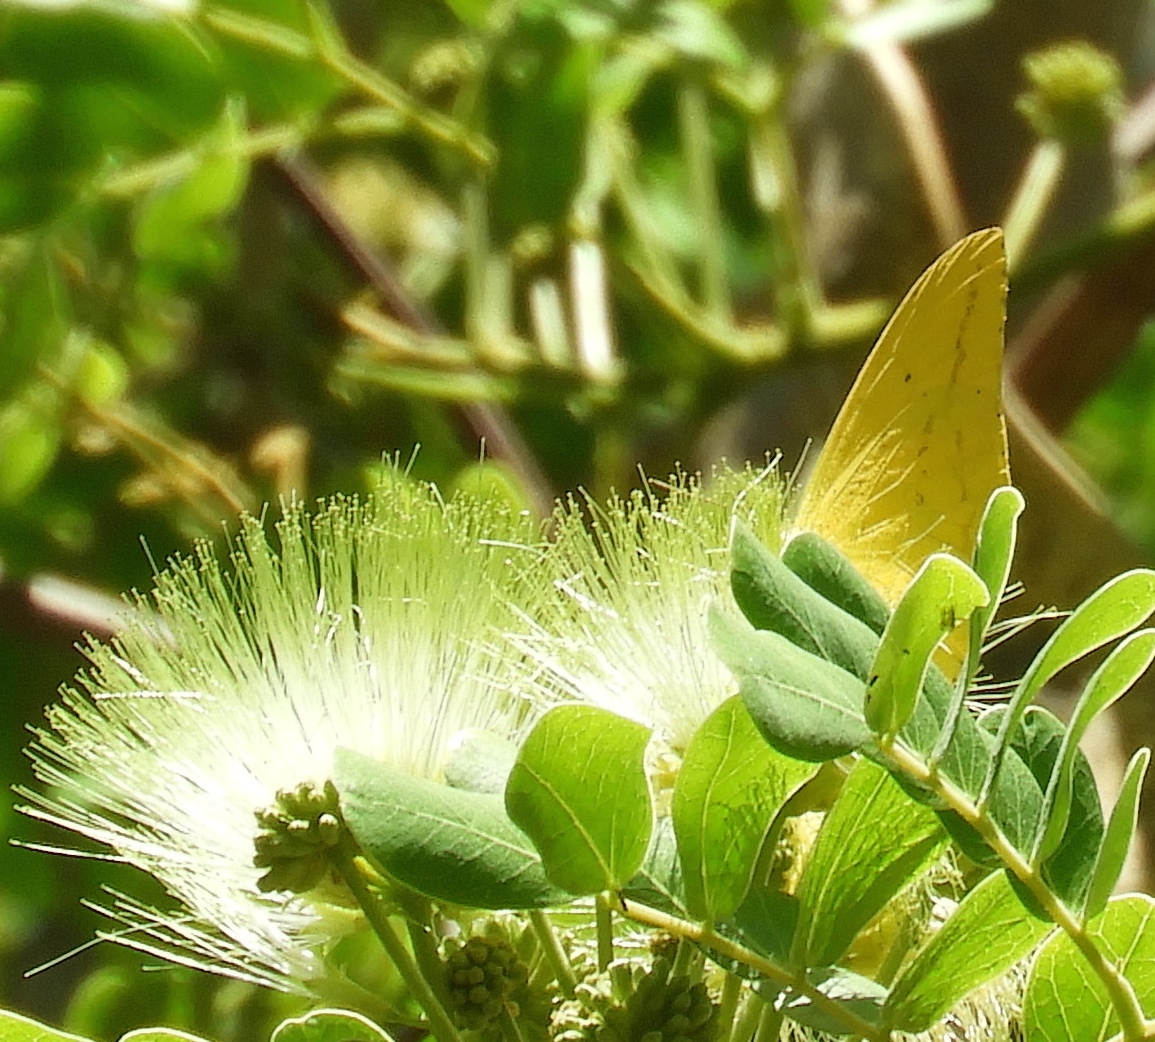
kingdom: Animalia
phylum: Arthropoda
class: Insecta
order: Lepidoptera
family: Pieridae
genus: Phoebis
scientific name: Phoebis agarithe
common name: Large orange sulphur
